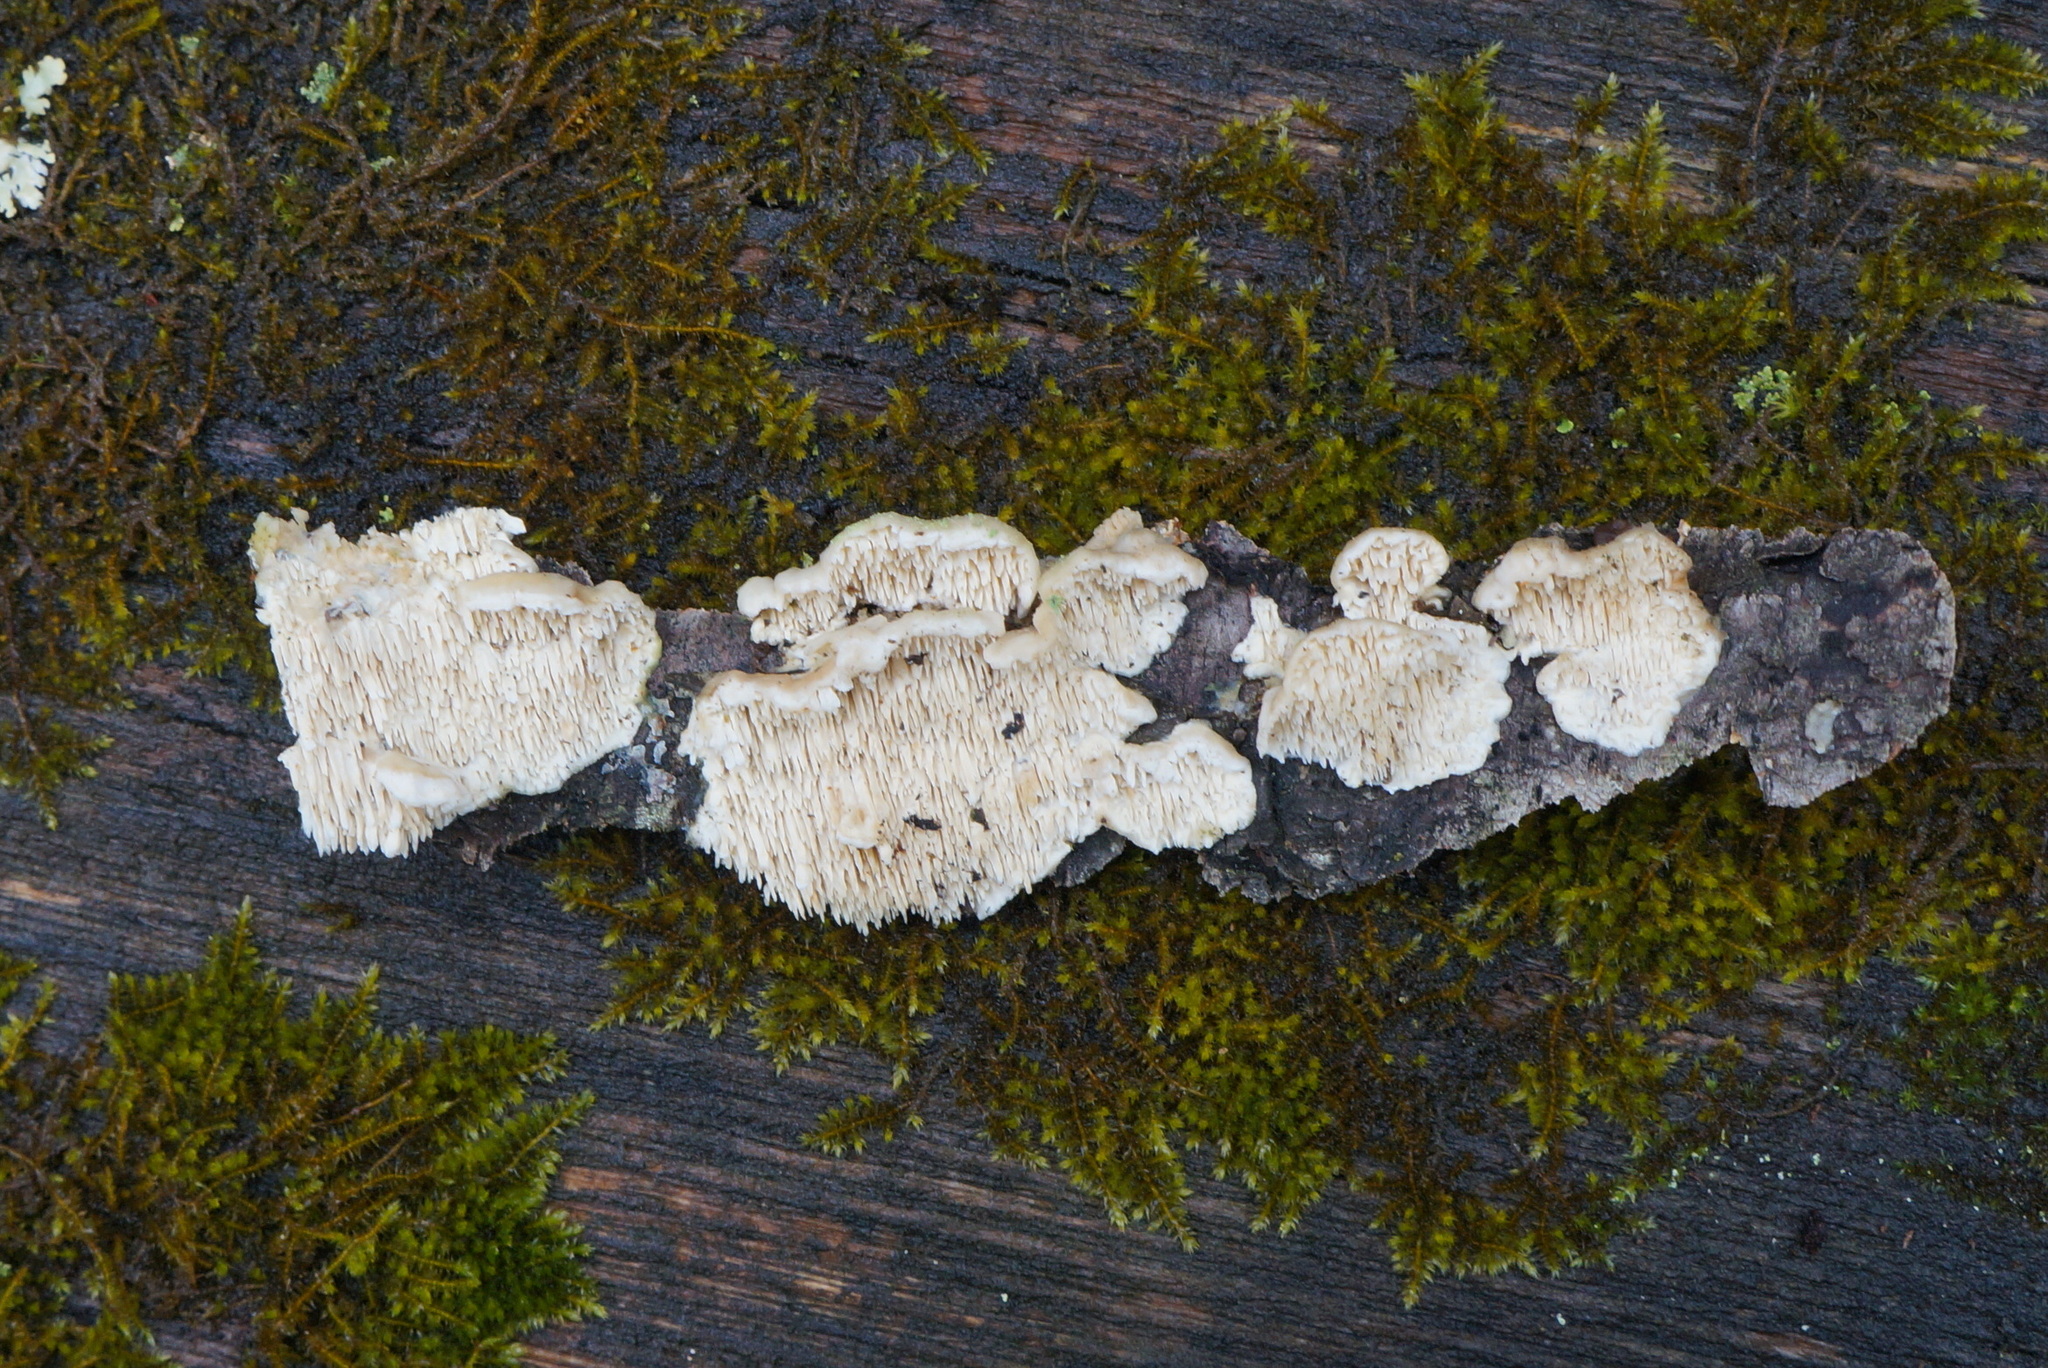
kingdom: Fungi
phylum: Basidiomycota
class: Agaricomycetes
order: Polyporales
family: Meruliaceae
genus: Irpiciporus
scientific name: Irpiciporus pachyodon
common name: Marshmallow polypore
